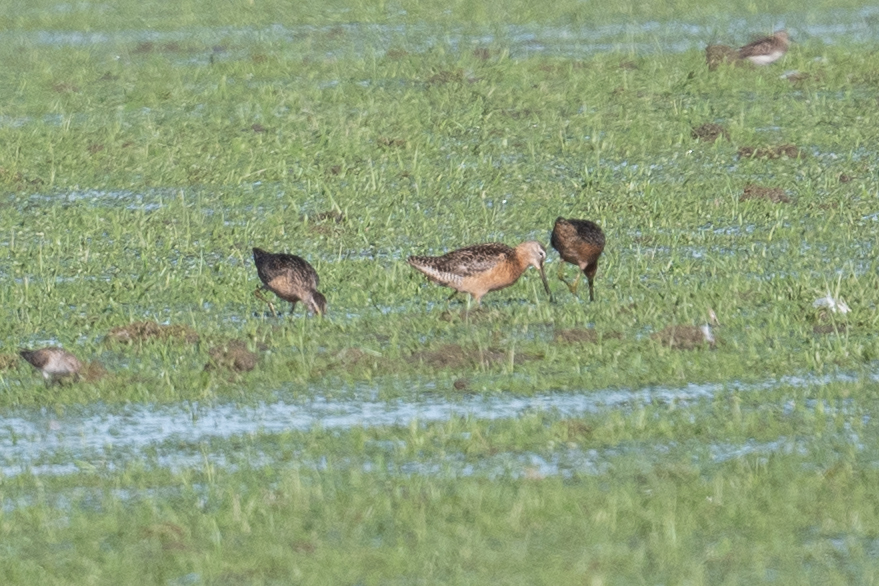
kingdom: Animalia
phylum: Chordata
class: Aves
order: Charadriiformes
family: Scolopacidae
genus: Limnodromus
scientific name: Limnodromus scolopaceus
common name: Long-billed dowitcher
